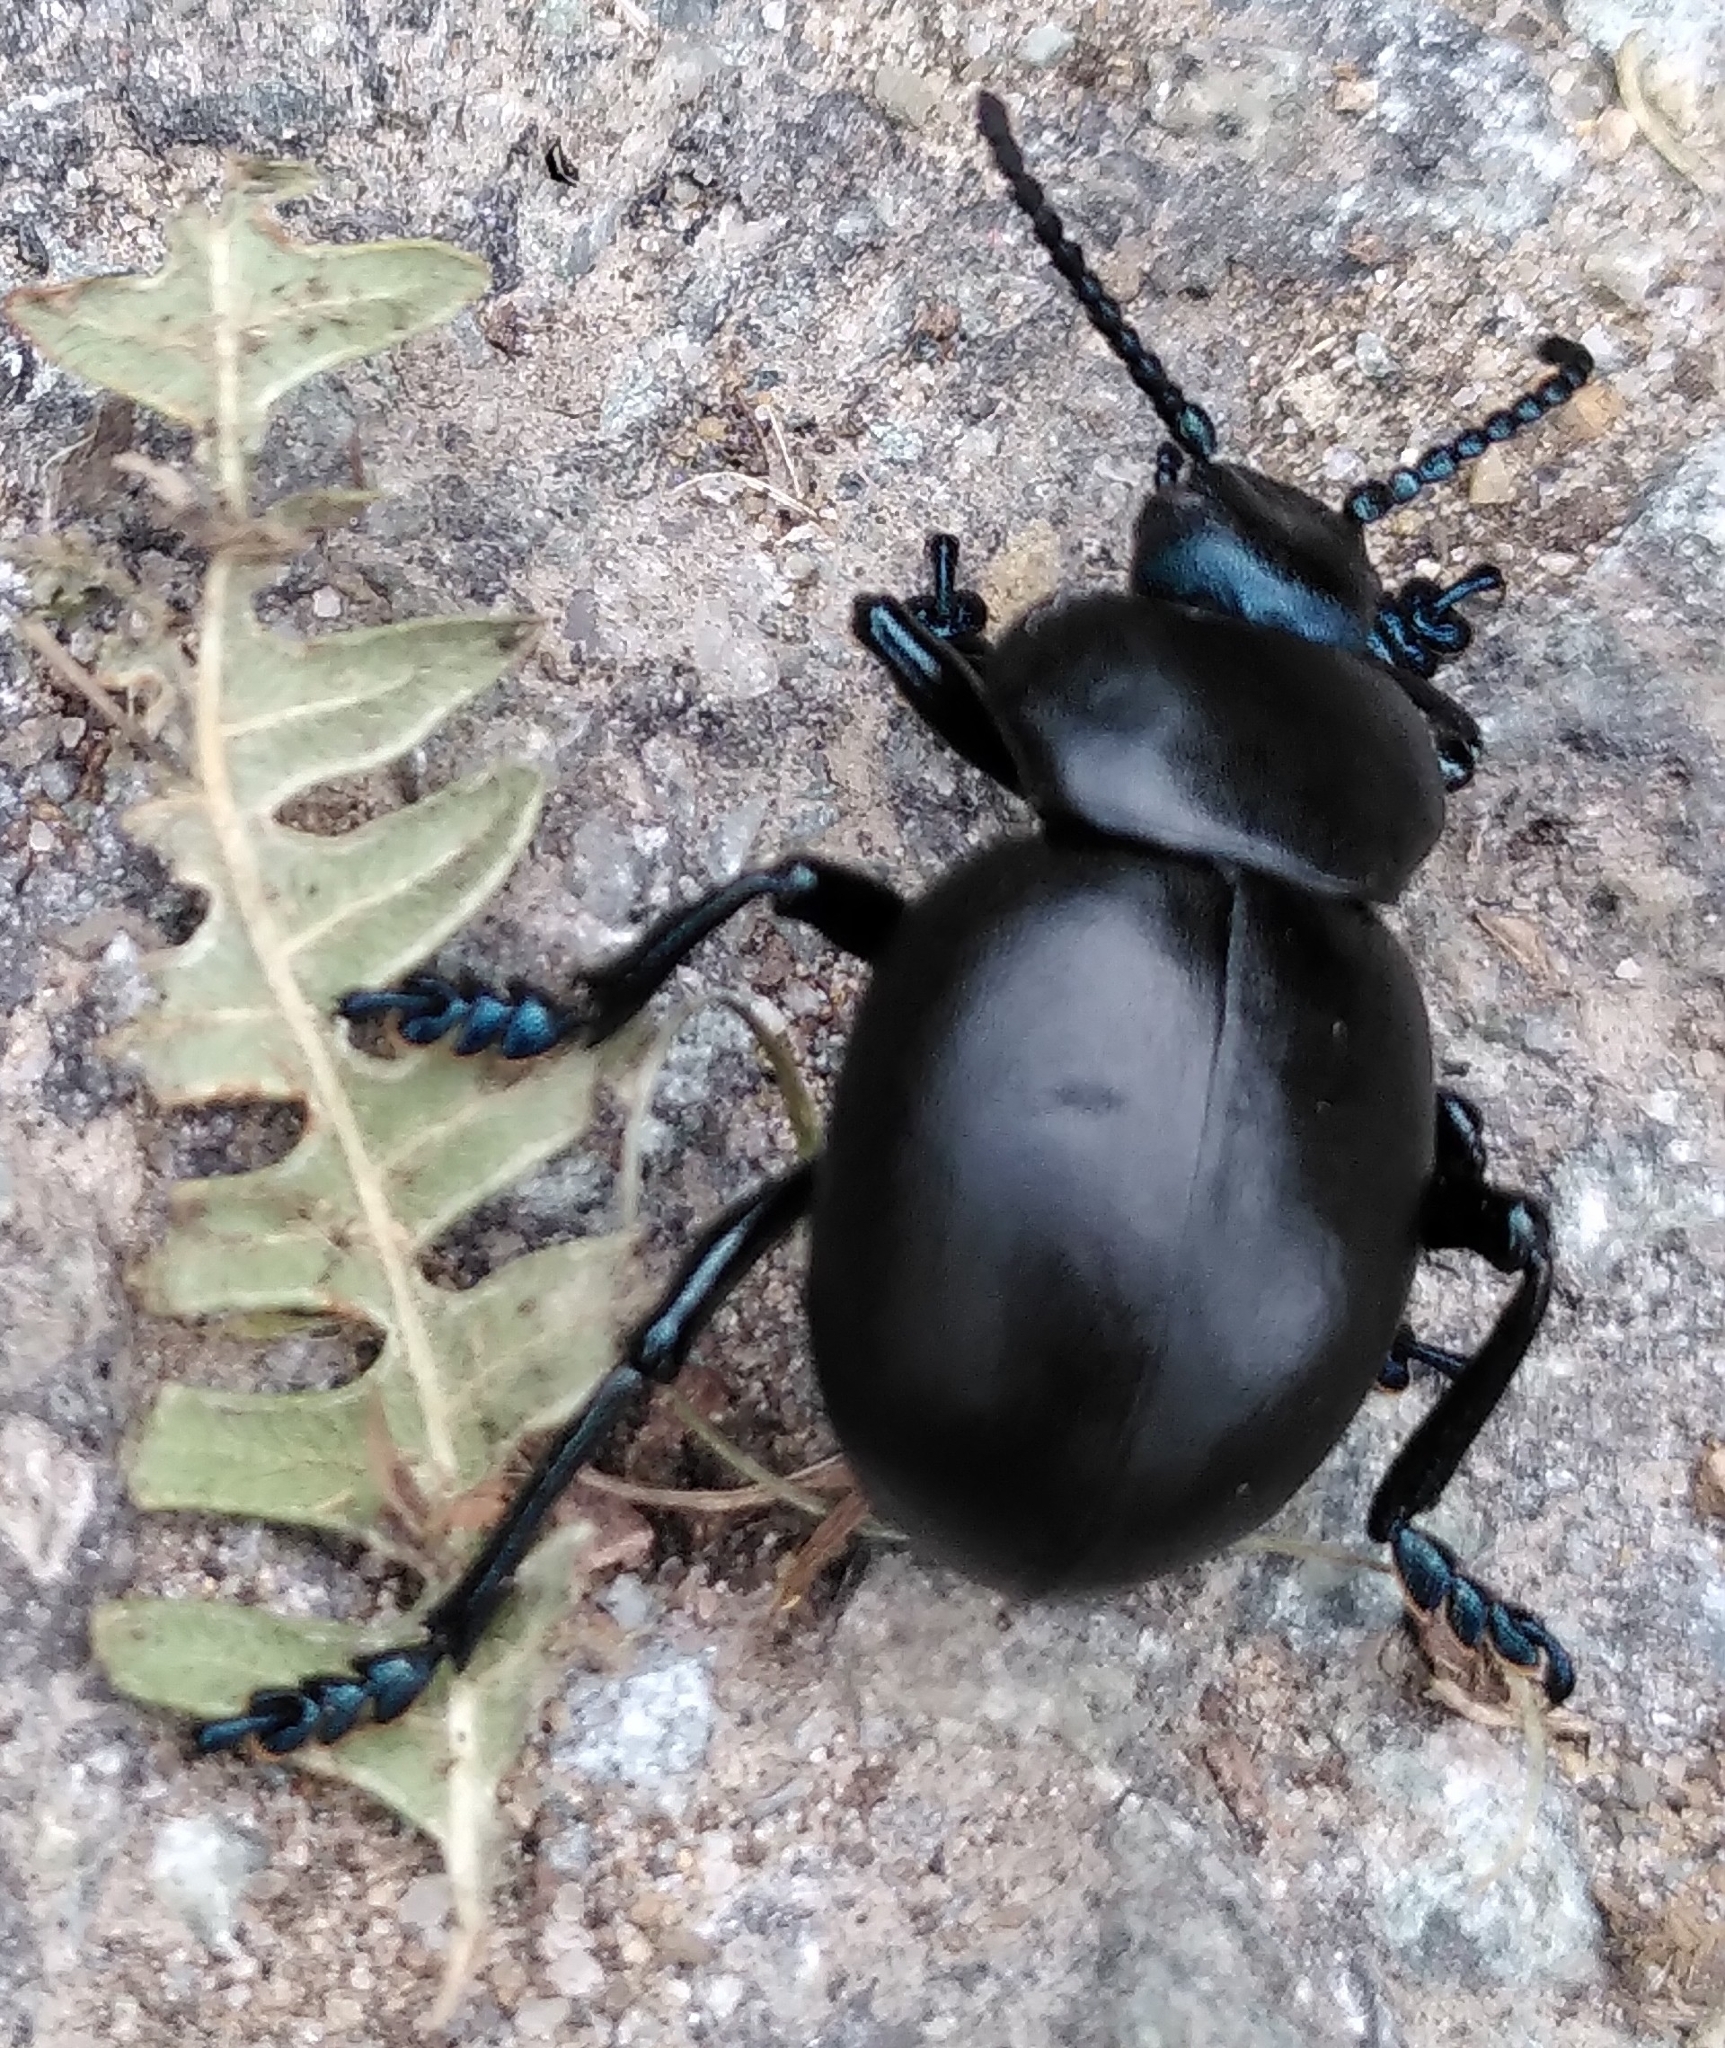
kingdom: Animalia
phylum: Arthropoda
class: Insecta
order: Coleoptera
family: Chrysomelidae
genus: Timarcha
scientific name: Timarcha tenebricosa
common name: Bloody-nosed beetle
